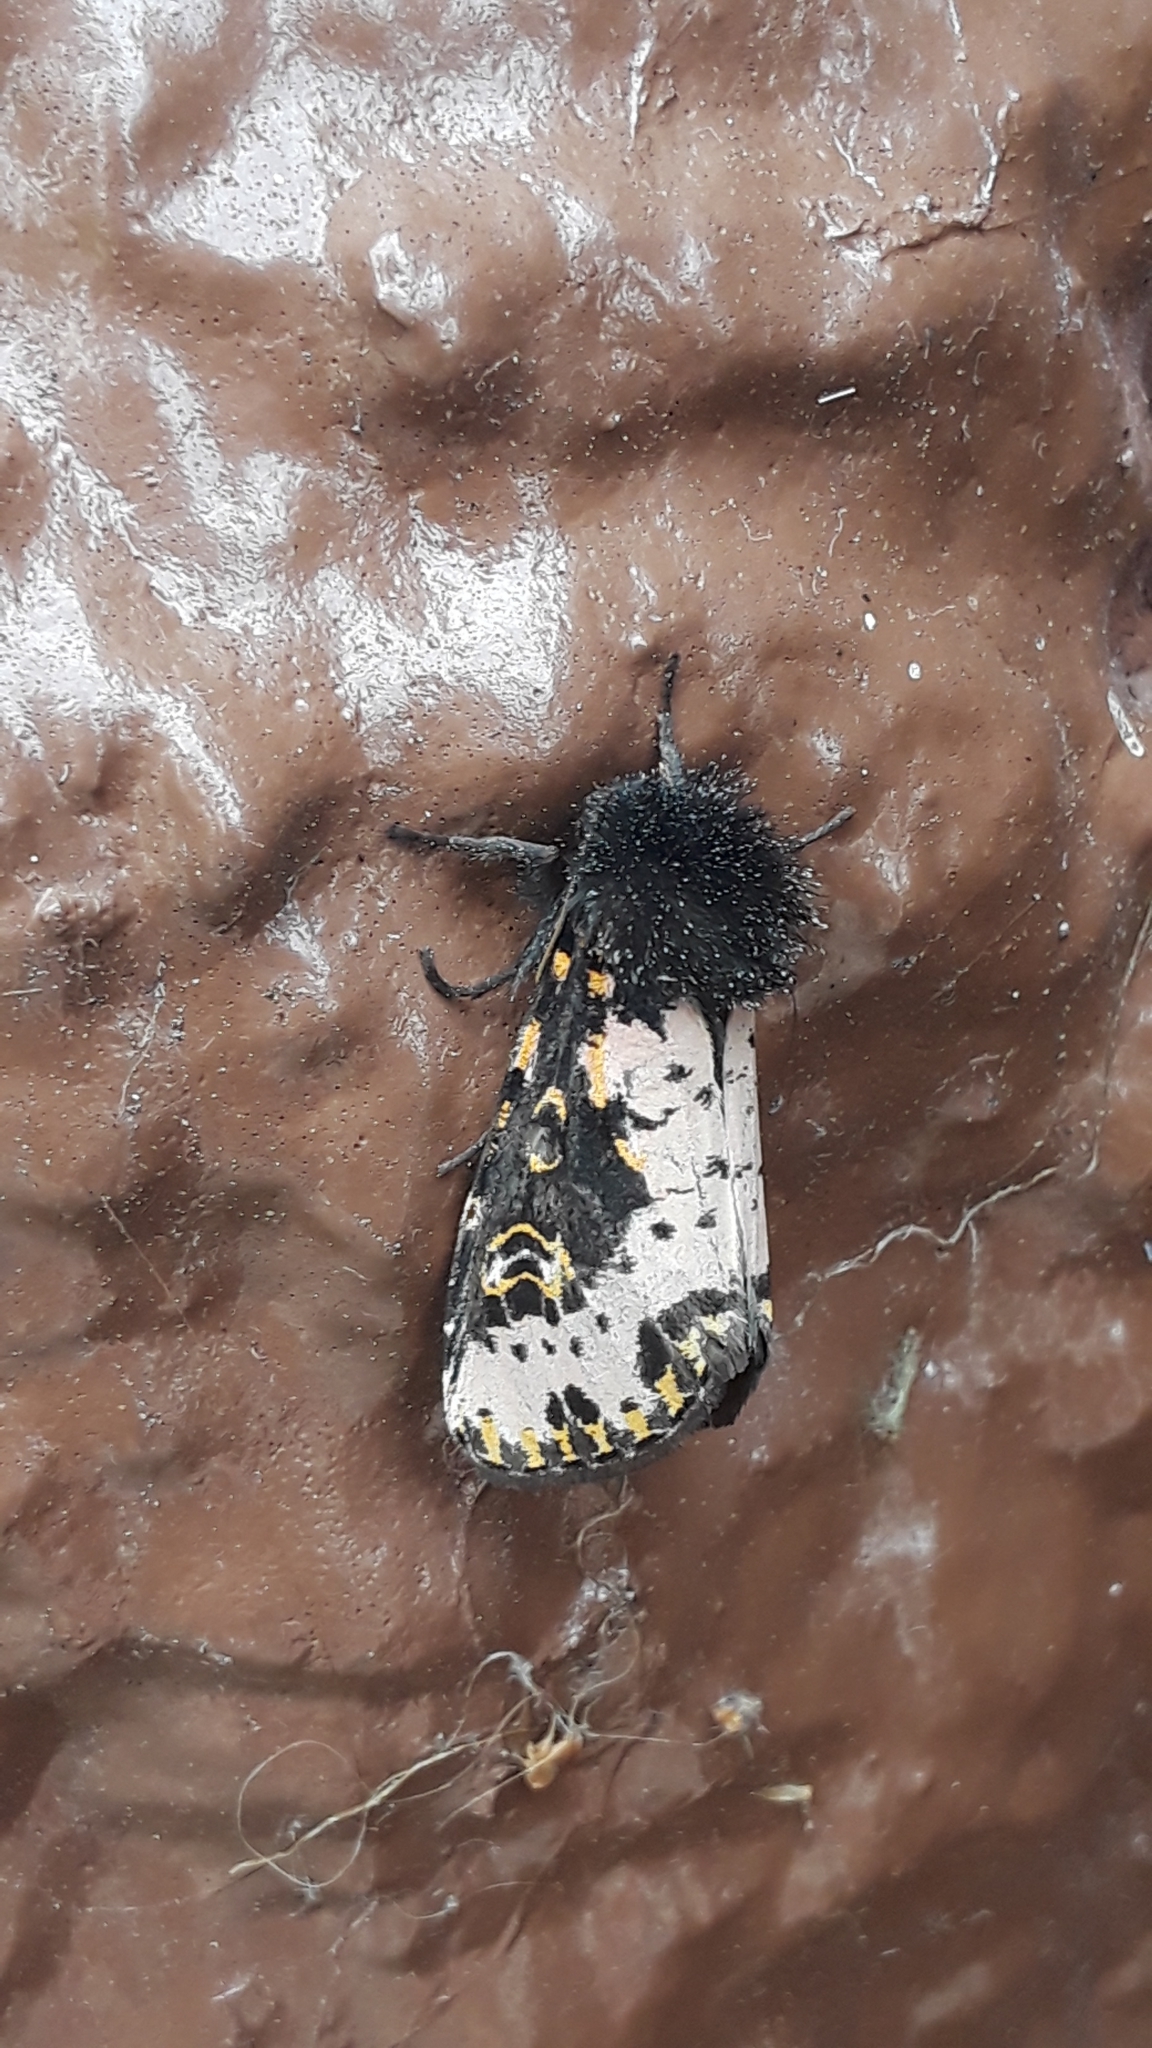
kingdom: Animalia
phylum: Arthropoda
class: Insecta
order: Lepidoptera
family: Noctuidae
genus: Xanthopastis
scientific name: Xanthopastis regnatrix
